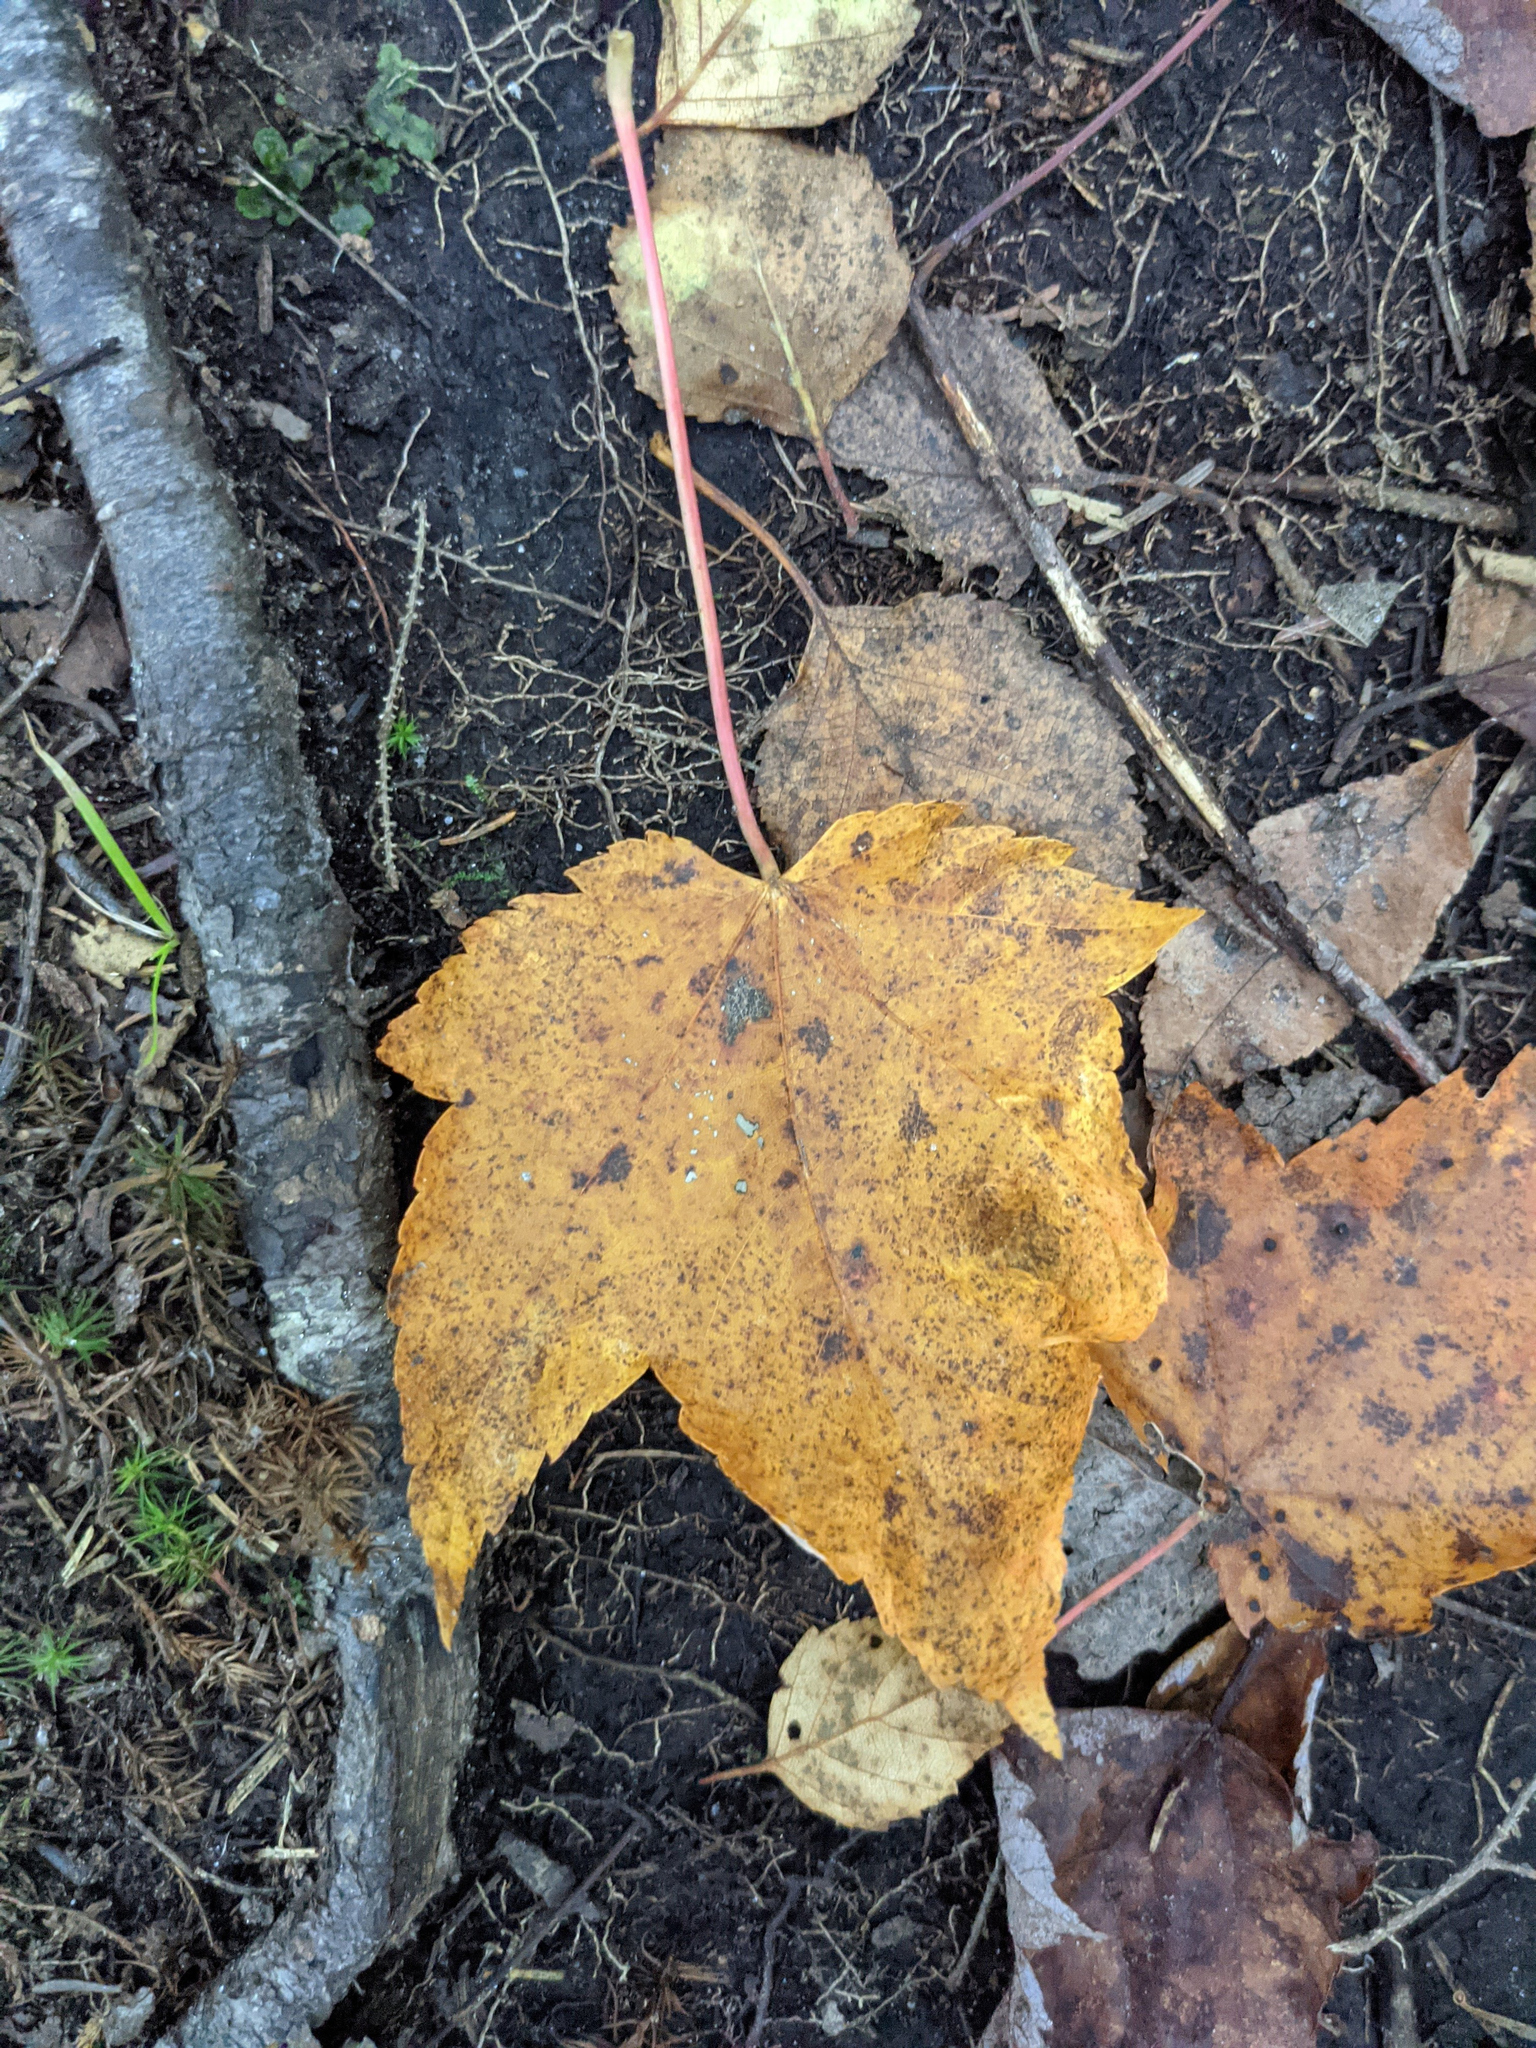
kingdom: Plantae
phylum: Tracheophyta
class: Magnoliopsida
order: Sapindales
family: Sapindaceae
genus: Acer
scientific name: Acer rubrum
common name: Red maple
